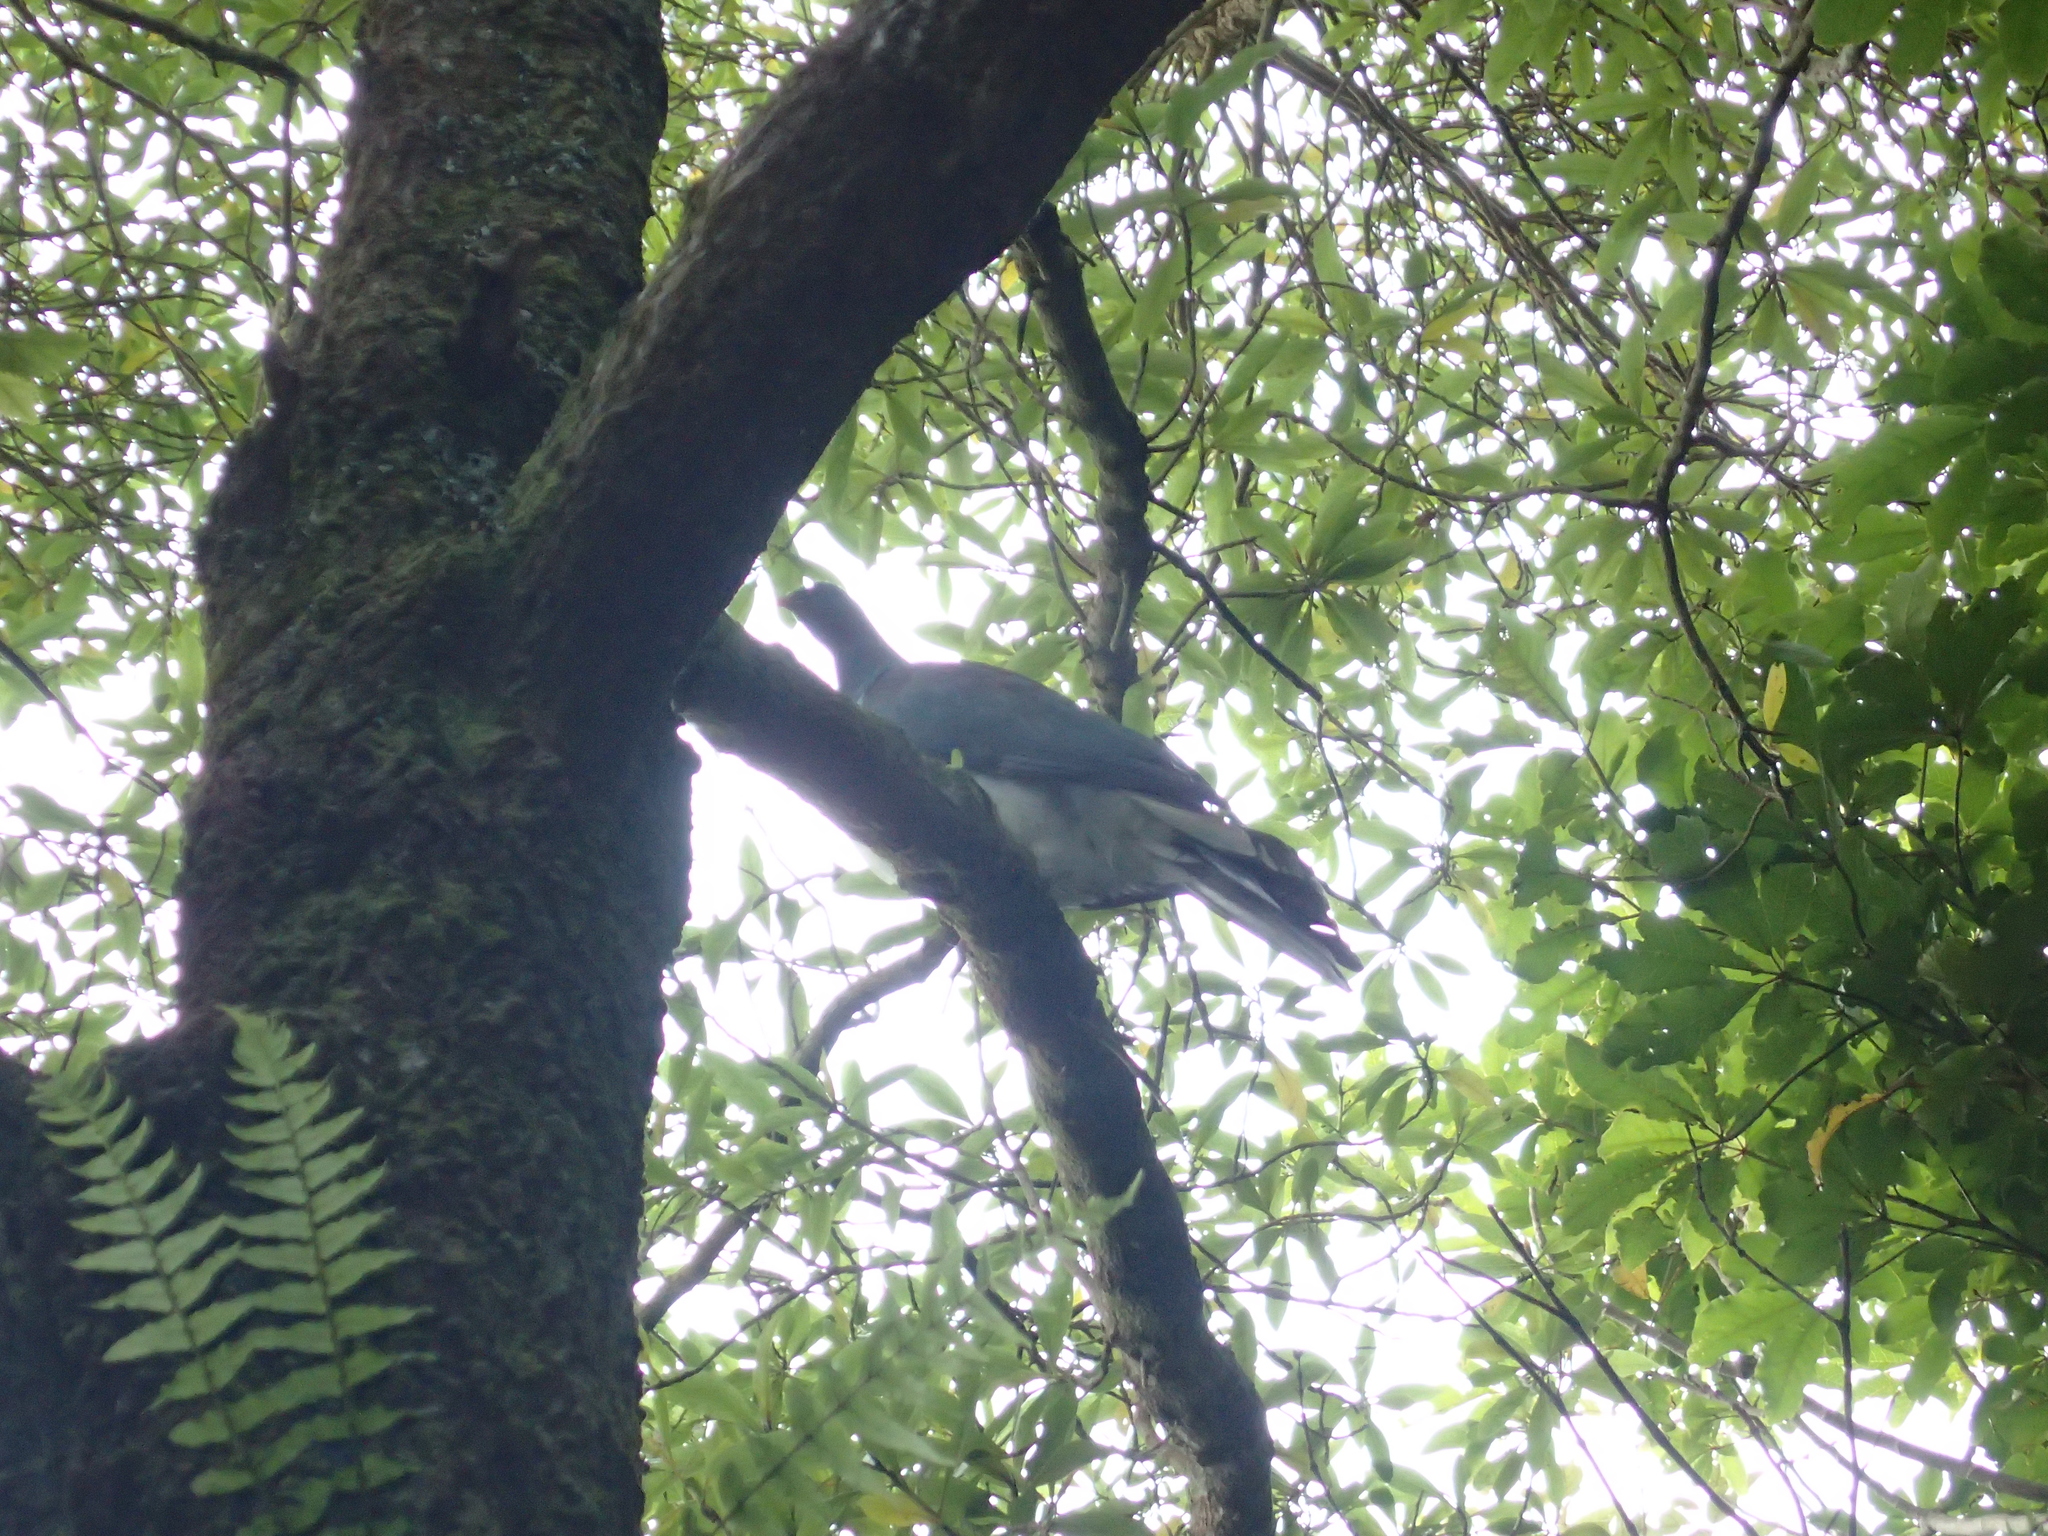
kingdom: Animalia
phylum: Chordata
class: Aves
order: Columbiformes
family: Columbidae
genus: Hemiphaga
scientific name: Hemiphaga novaeseelandiae
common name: New zealand pigeon
